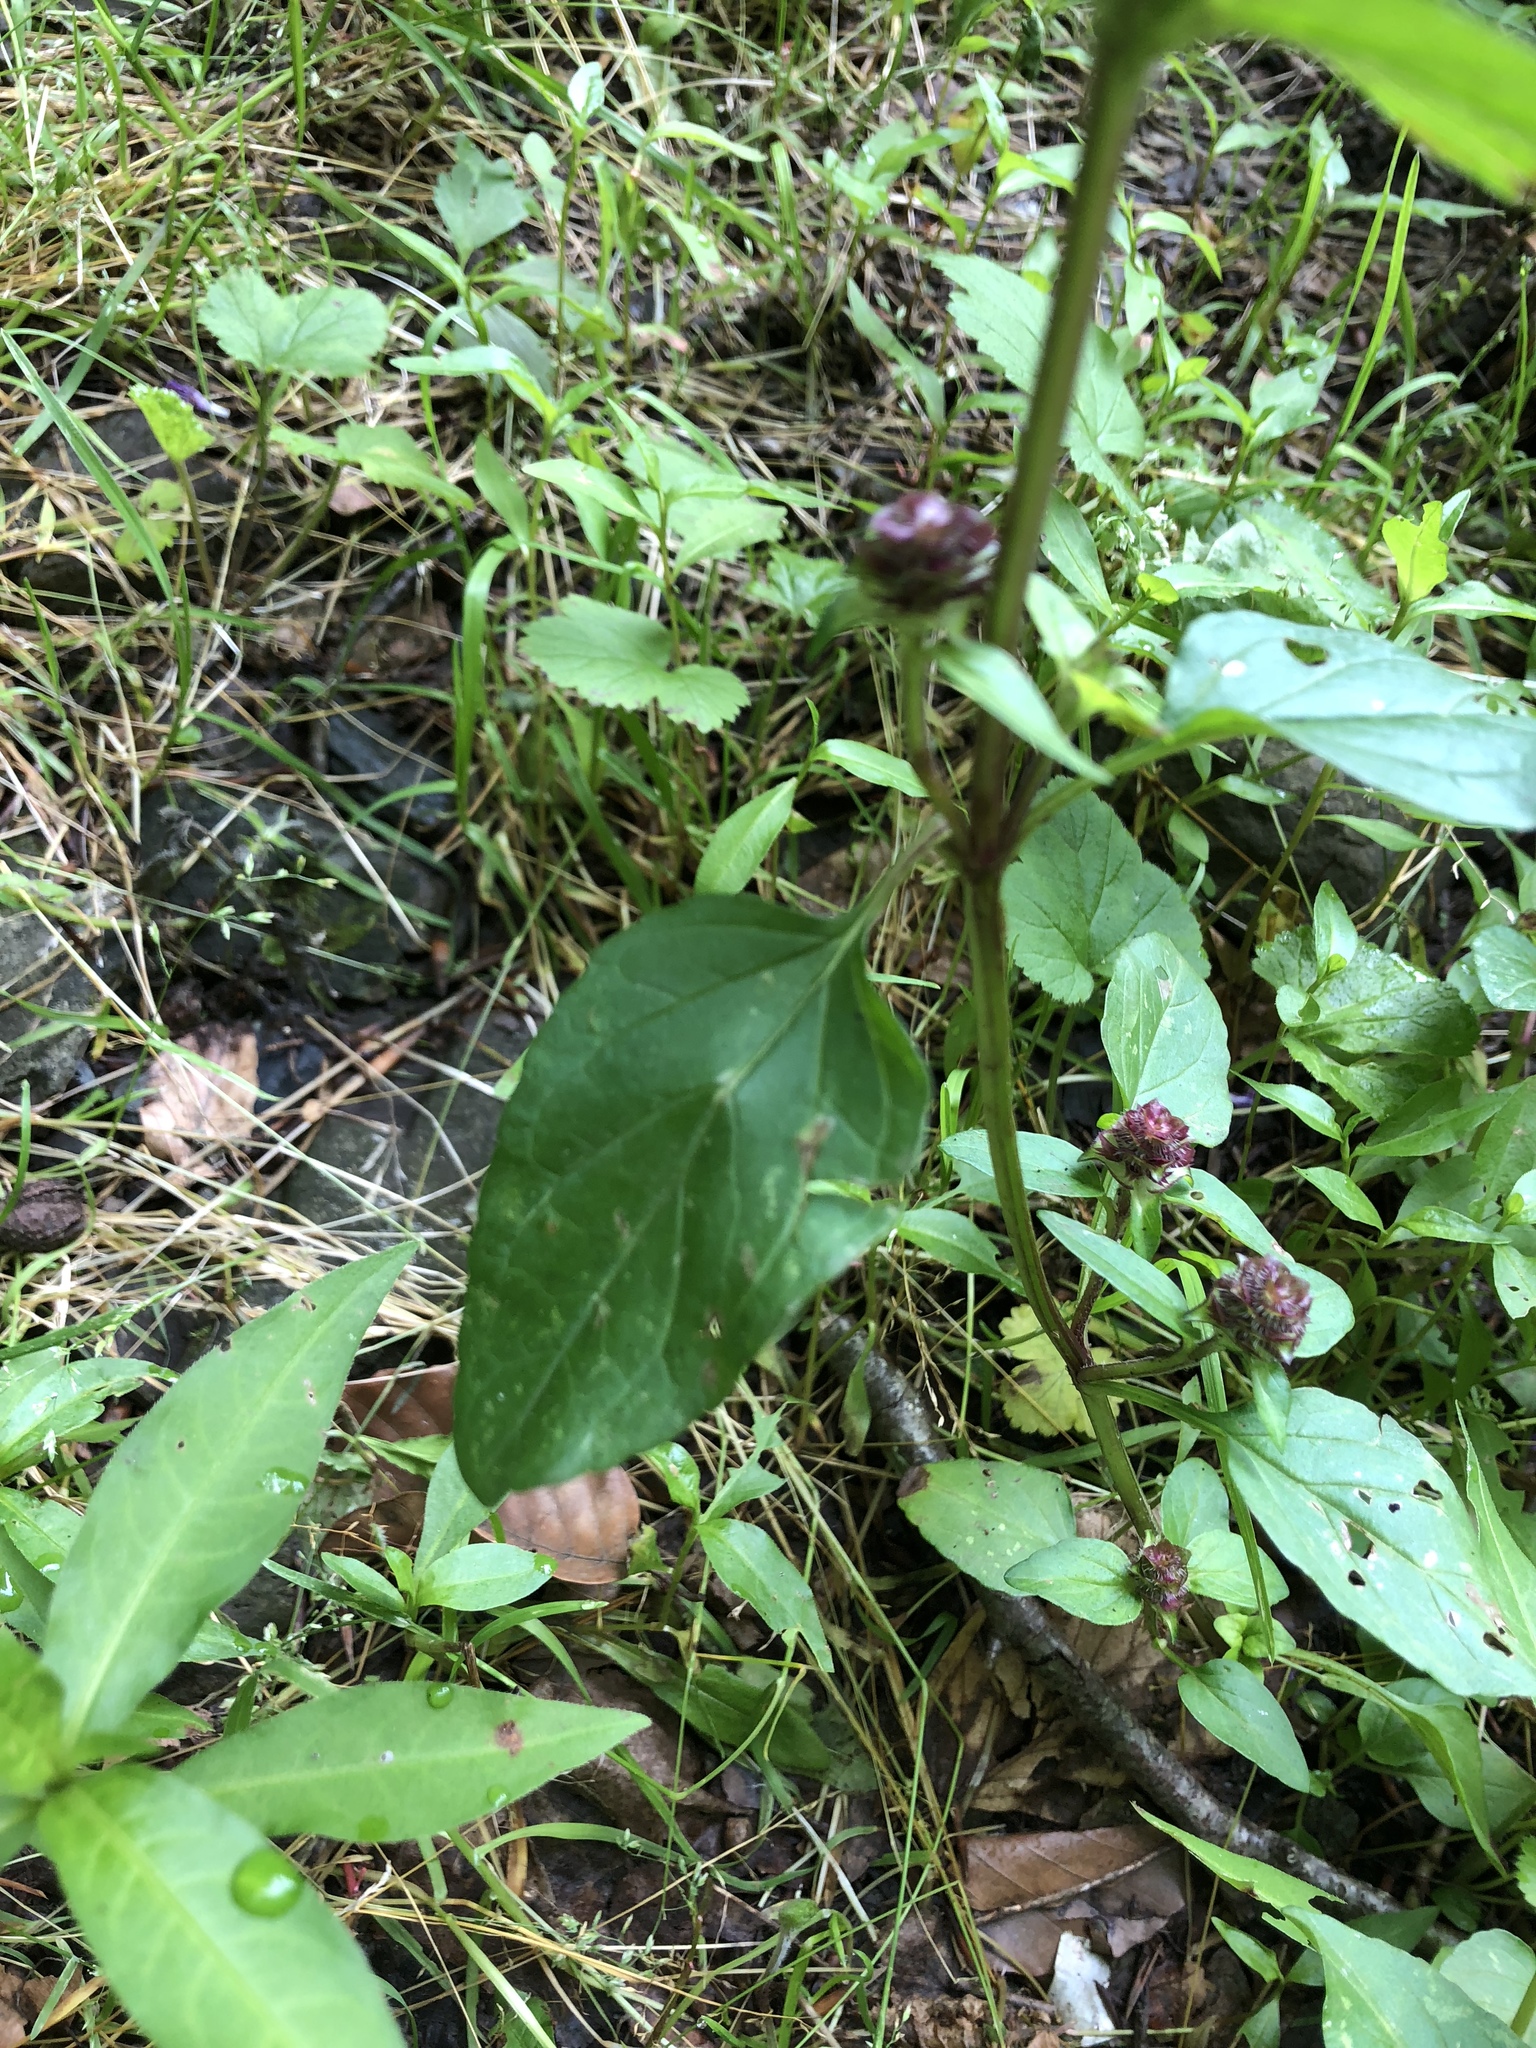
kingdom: Plantae
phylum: Tracheophyta
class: Magnoliopsida
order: Lamiales
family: Lamiaceae
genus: Prunella
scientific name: Prunella vulgaris
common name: Heal-all
